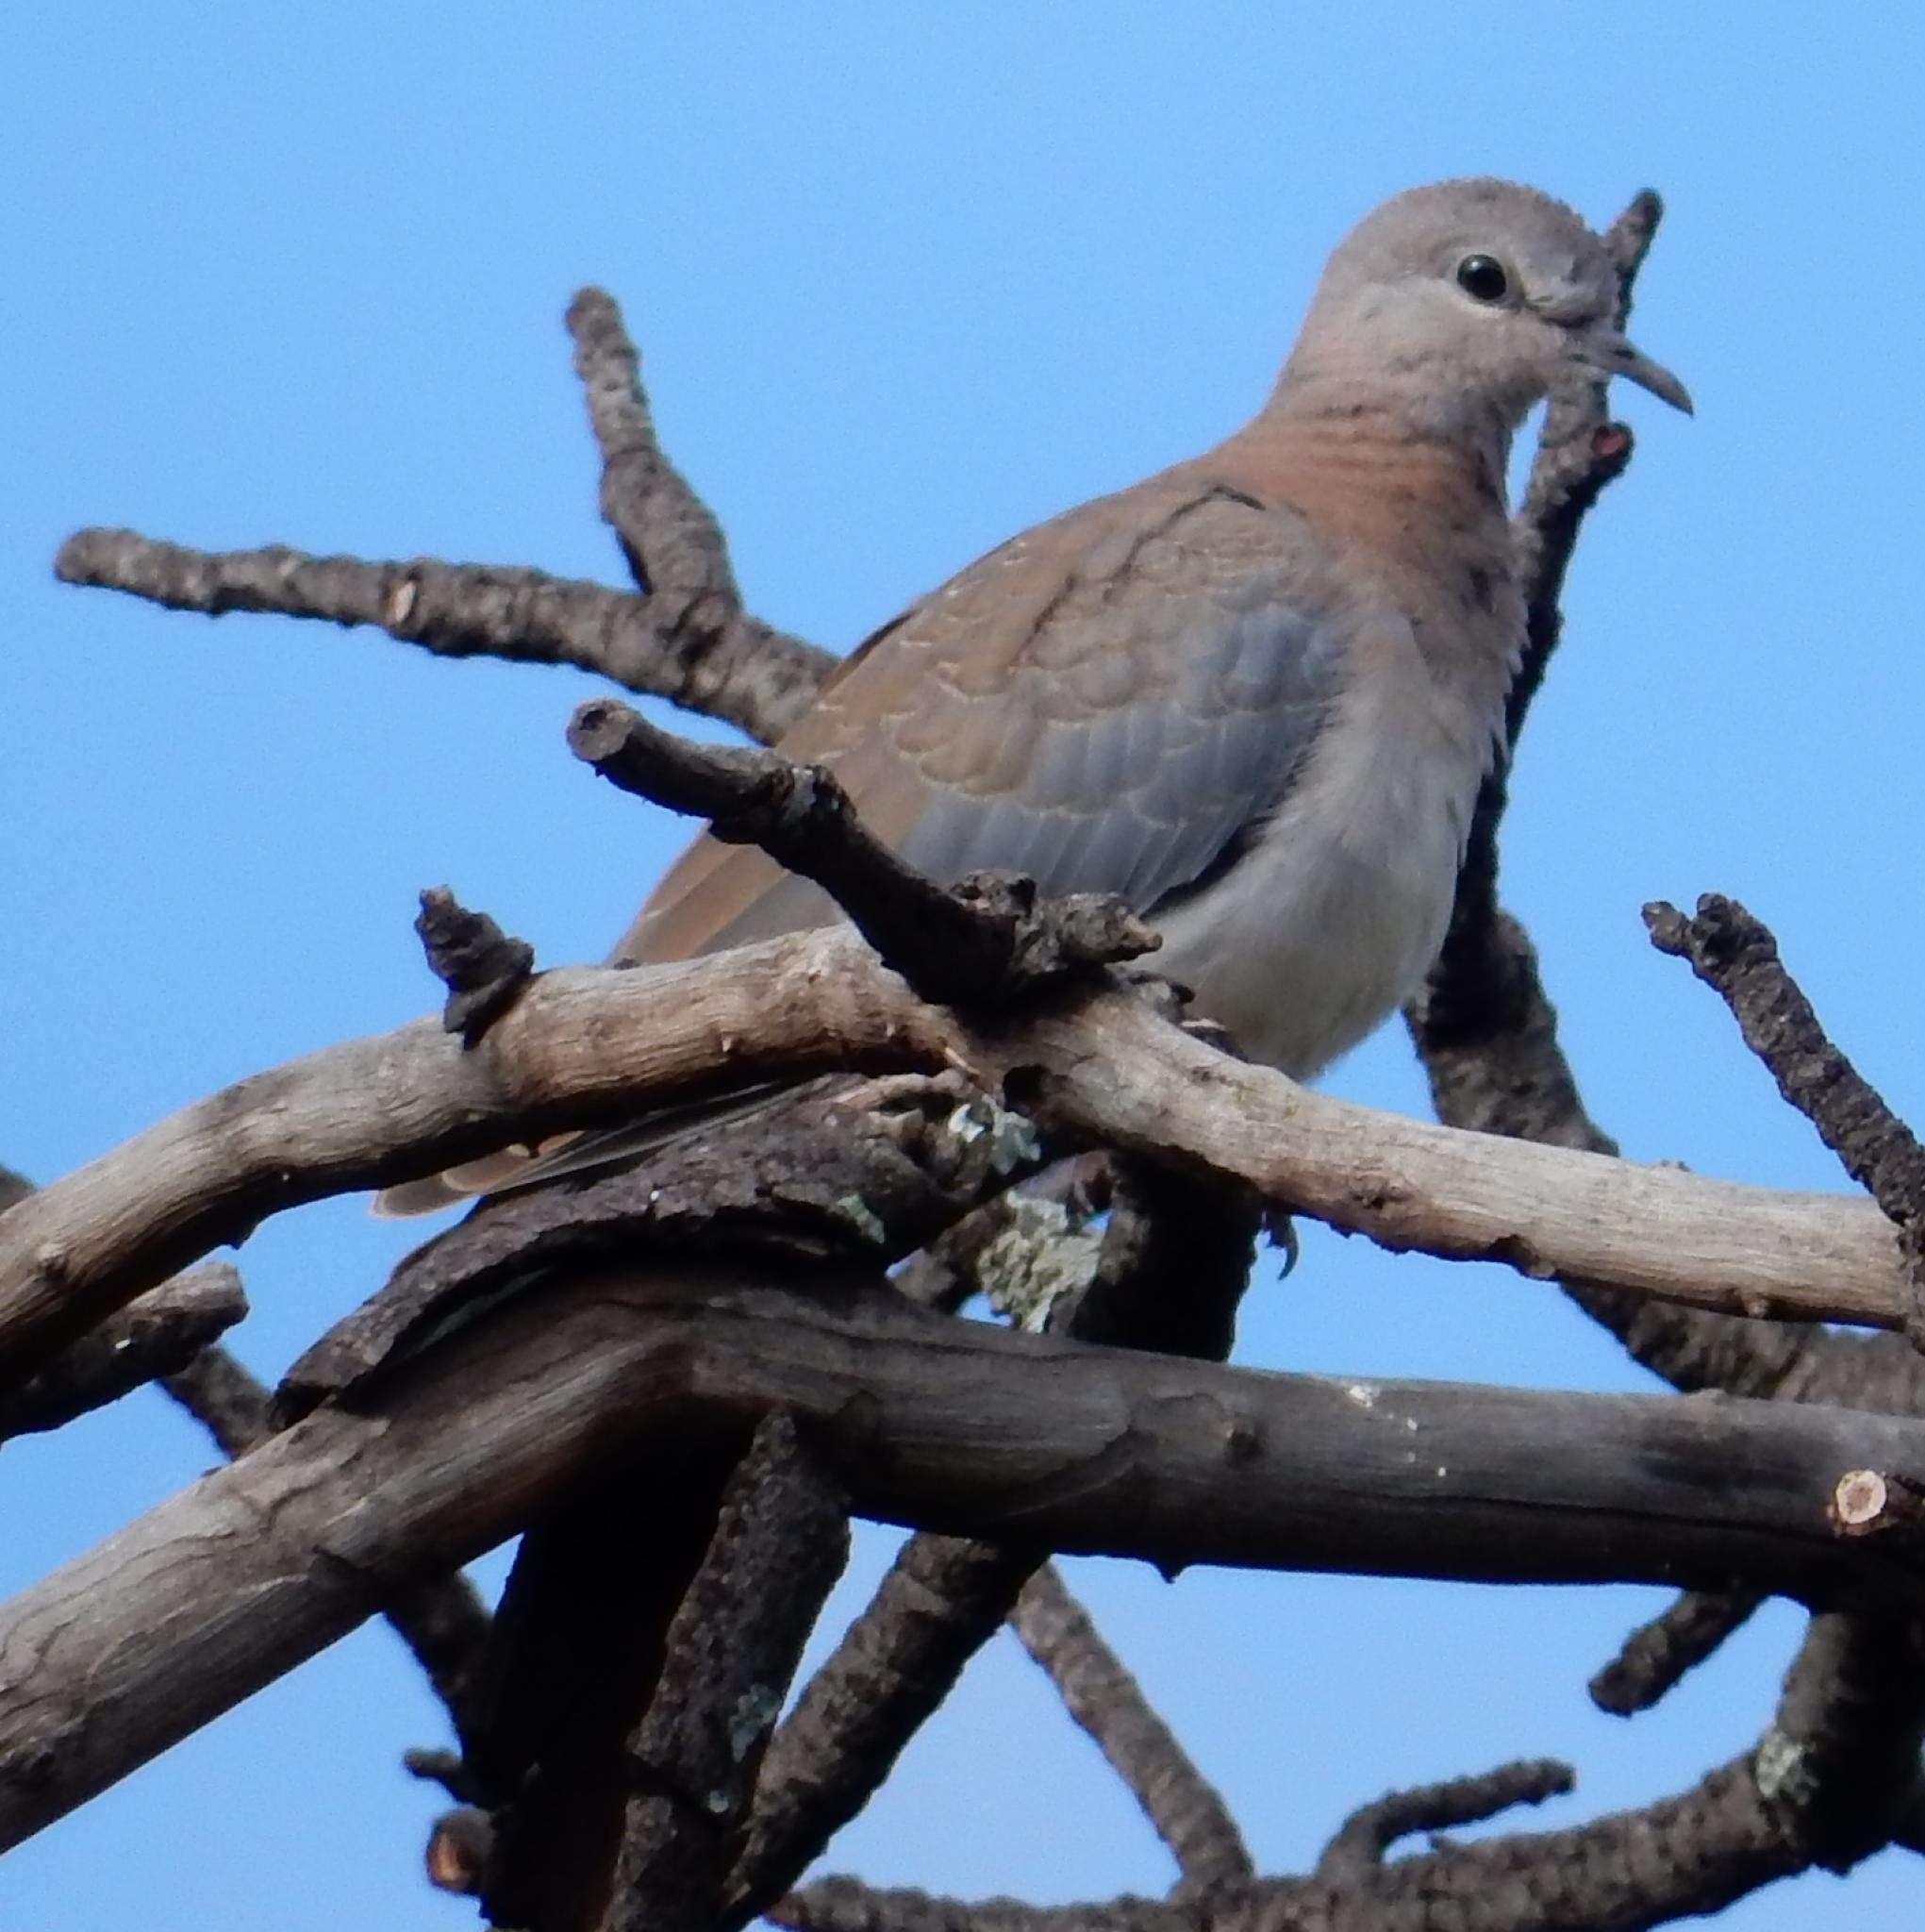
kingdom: Animalia
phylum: Chordata
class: Aves
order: Columbiformes
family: Columbidae
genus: Spilopelia
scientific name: Spilopelia senegalensis
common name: Laughing dove
